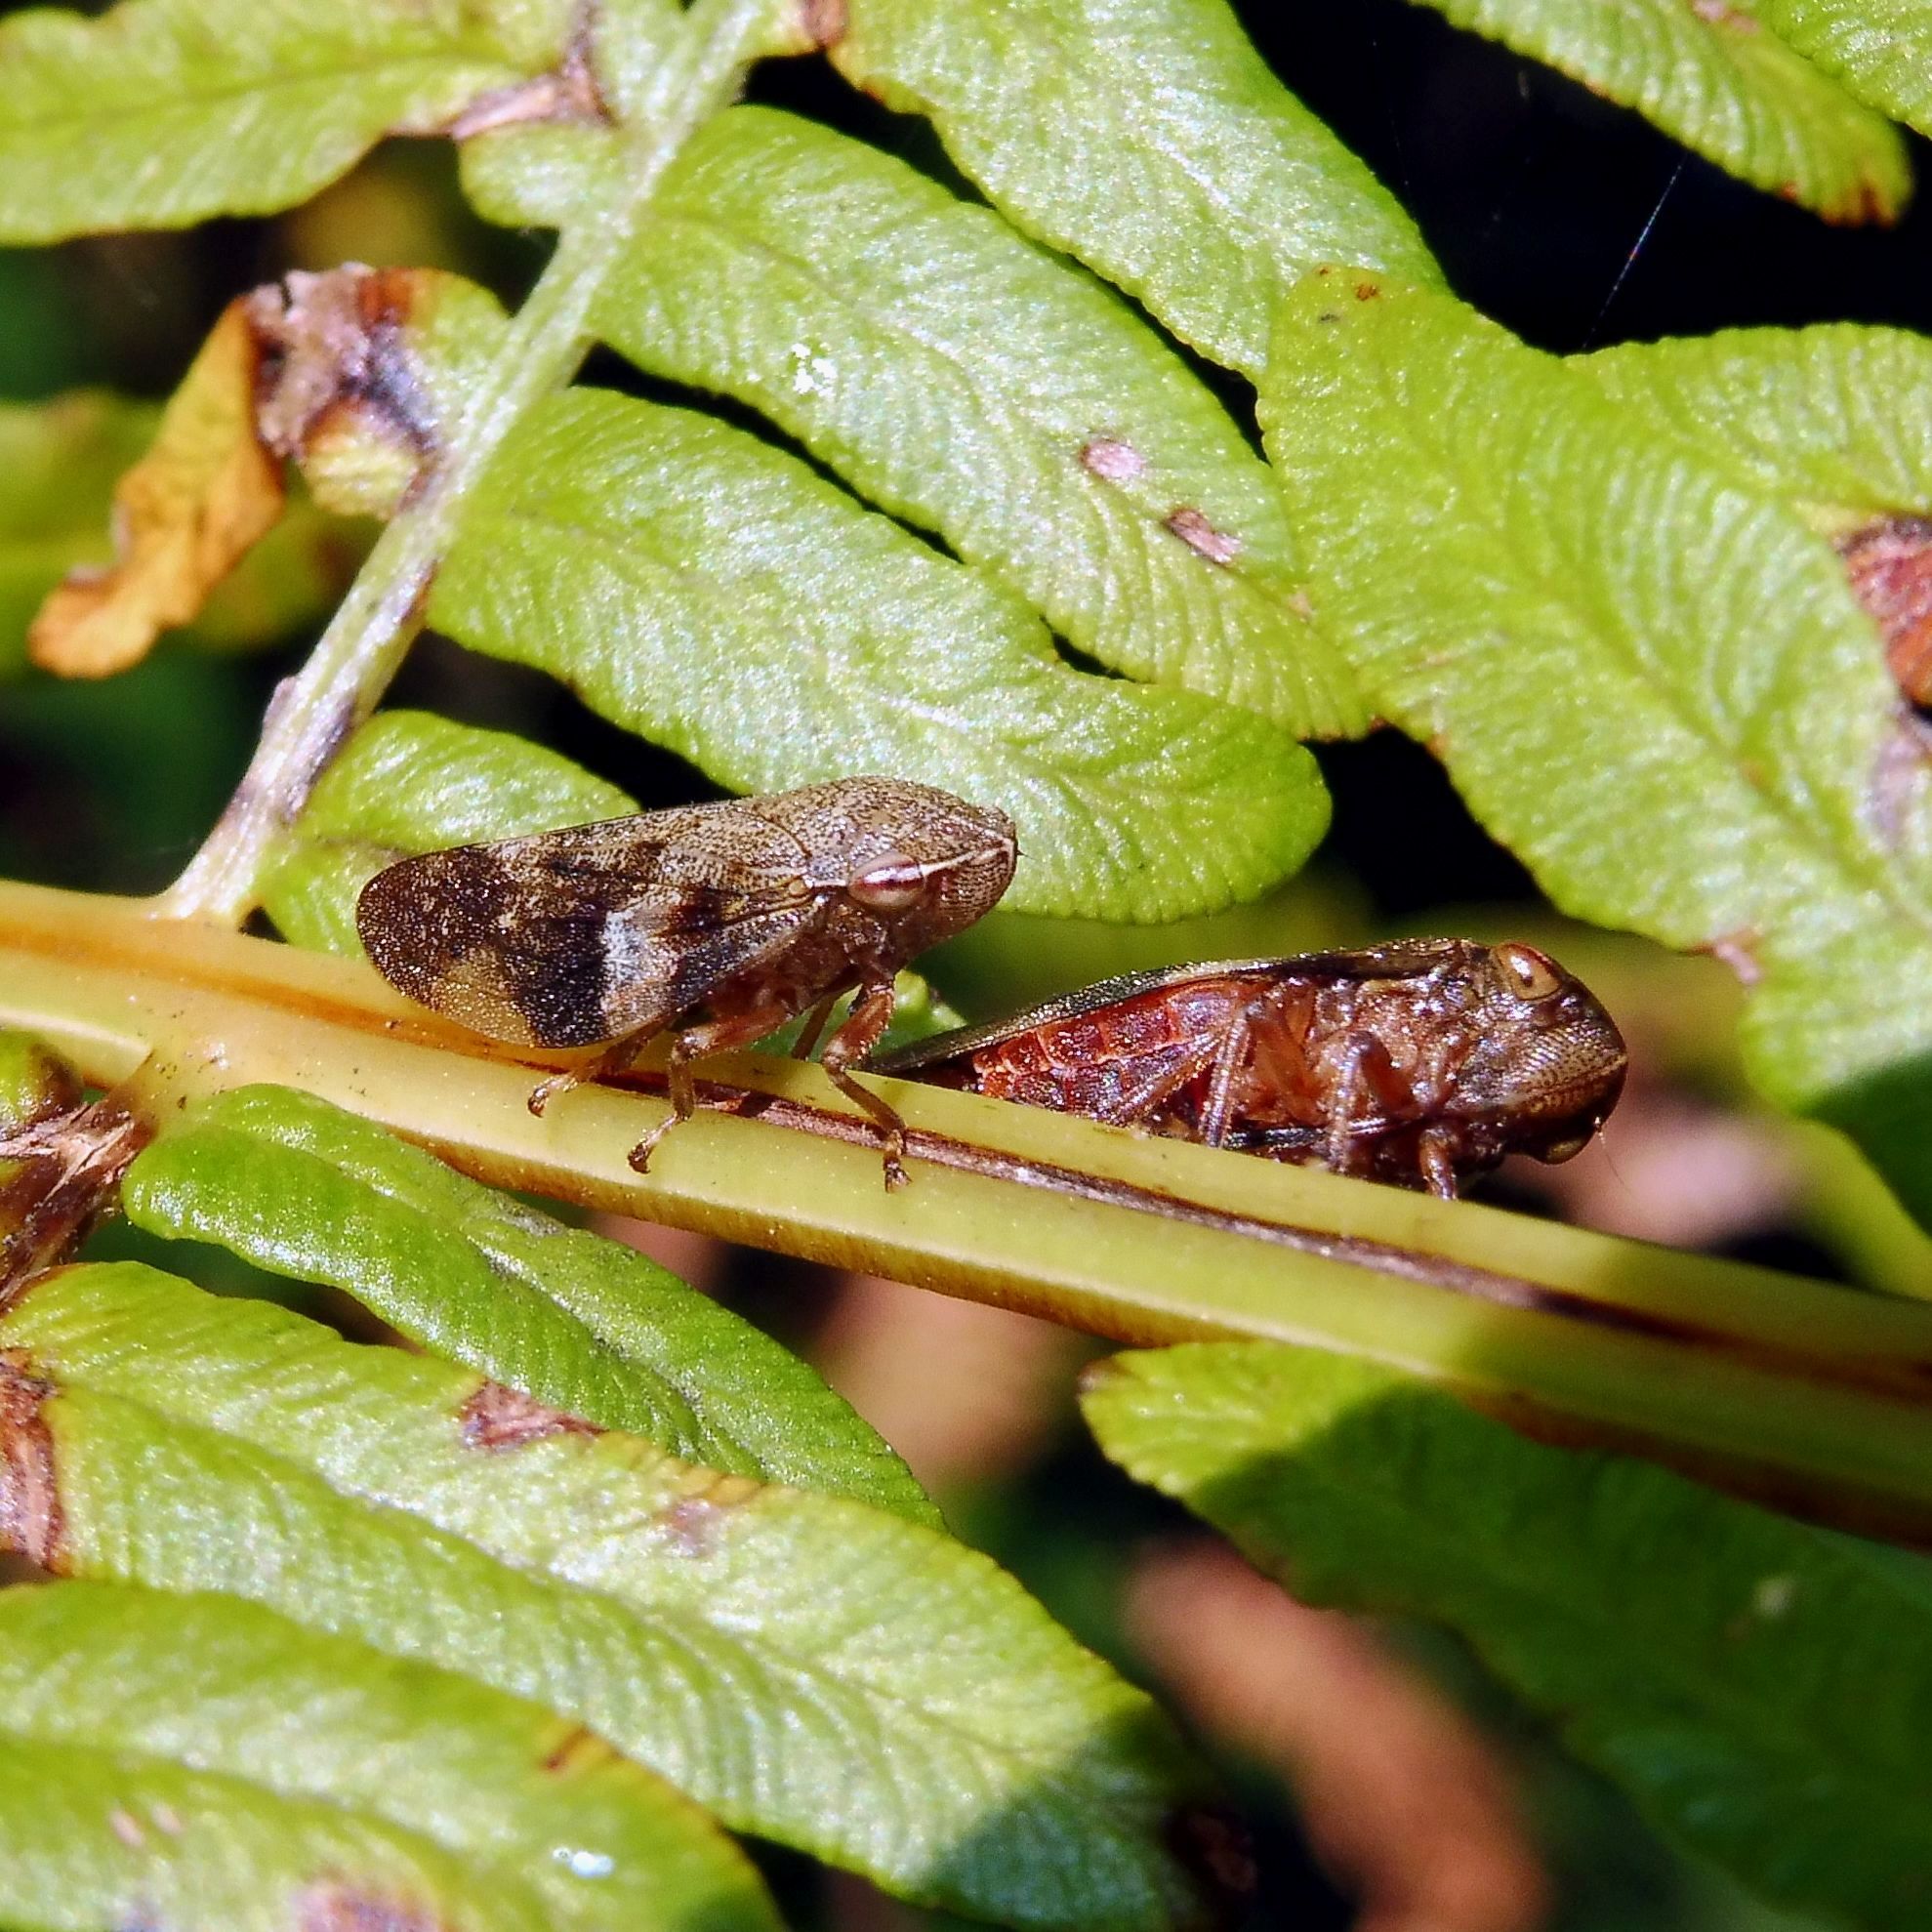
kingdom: Animalia
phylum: Arthropoda
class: Insecta
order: Hemiptera
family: Aphrophoridae
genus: Aphrophora
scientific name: Aphrophora alni
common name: European alder spittlebug
